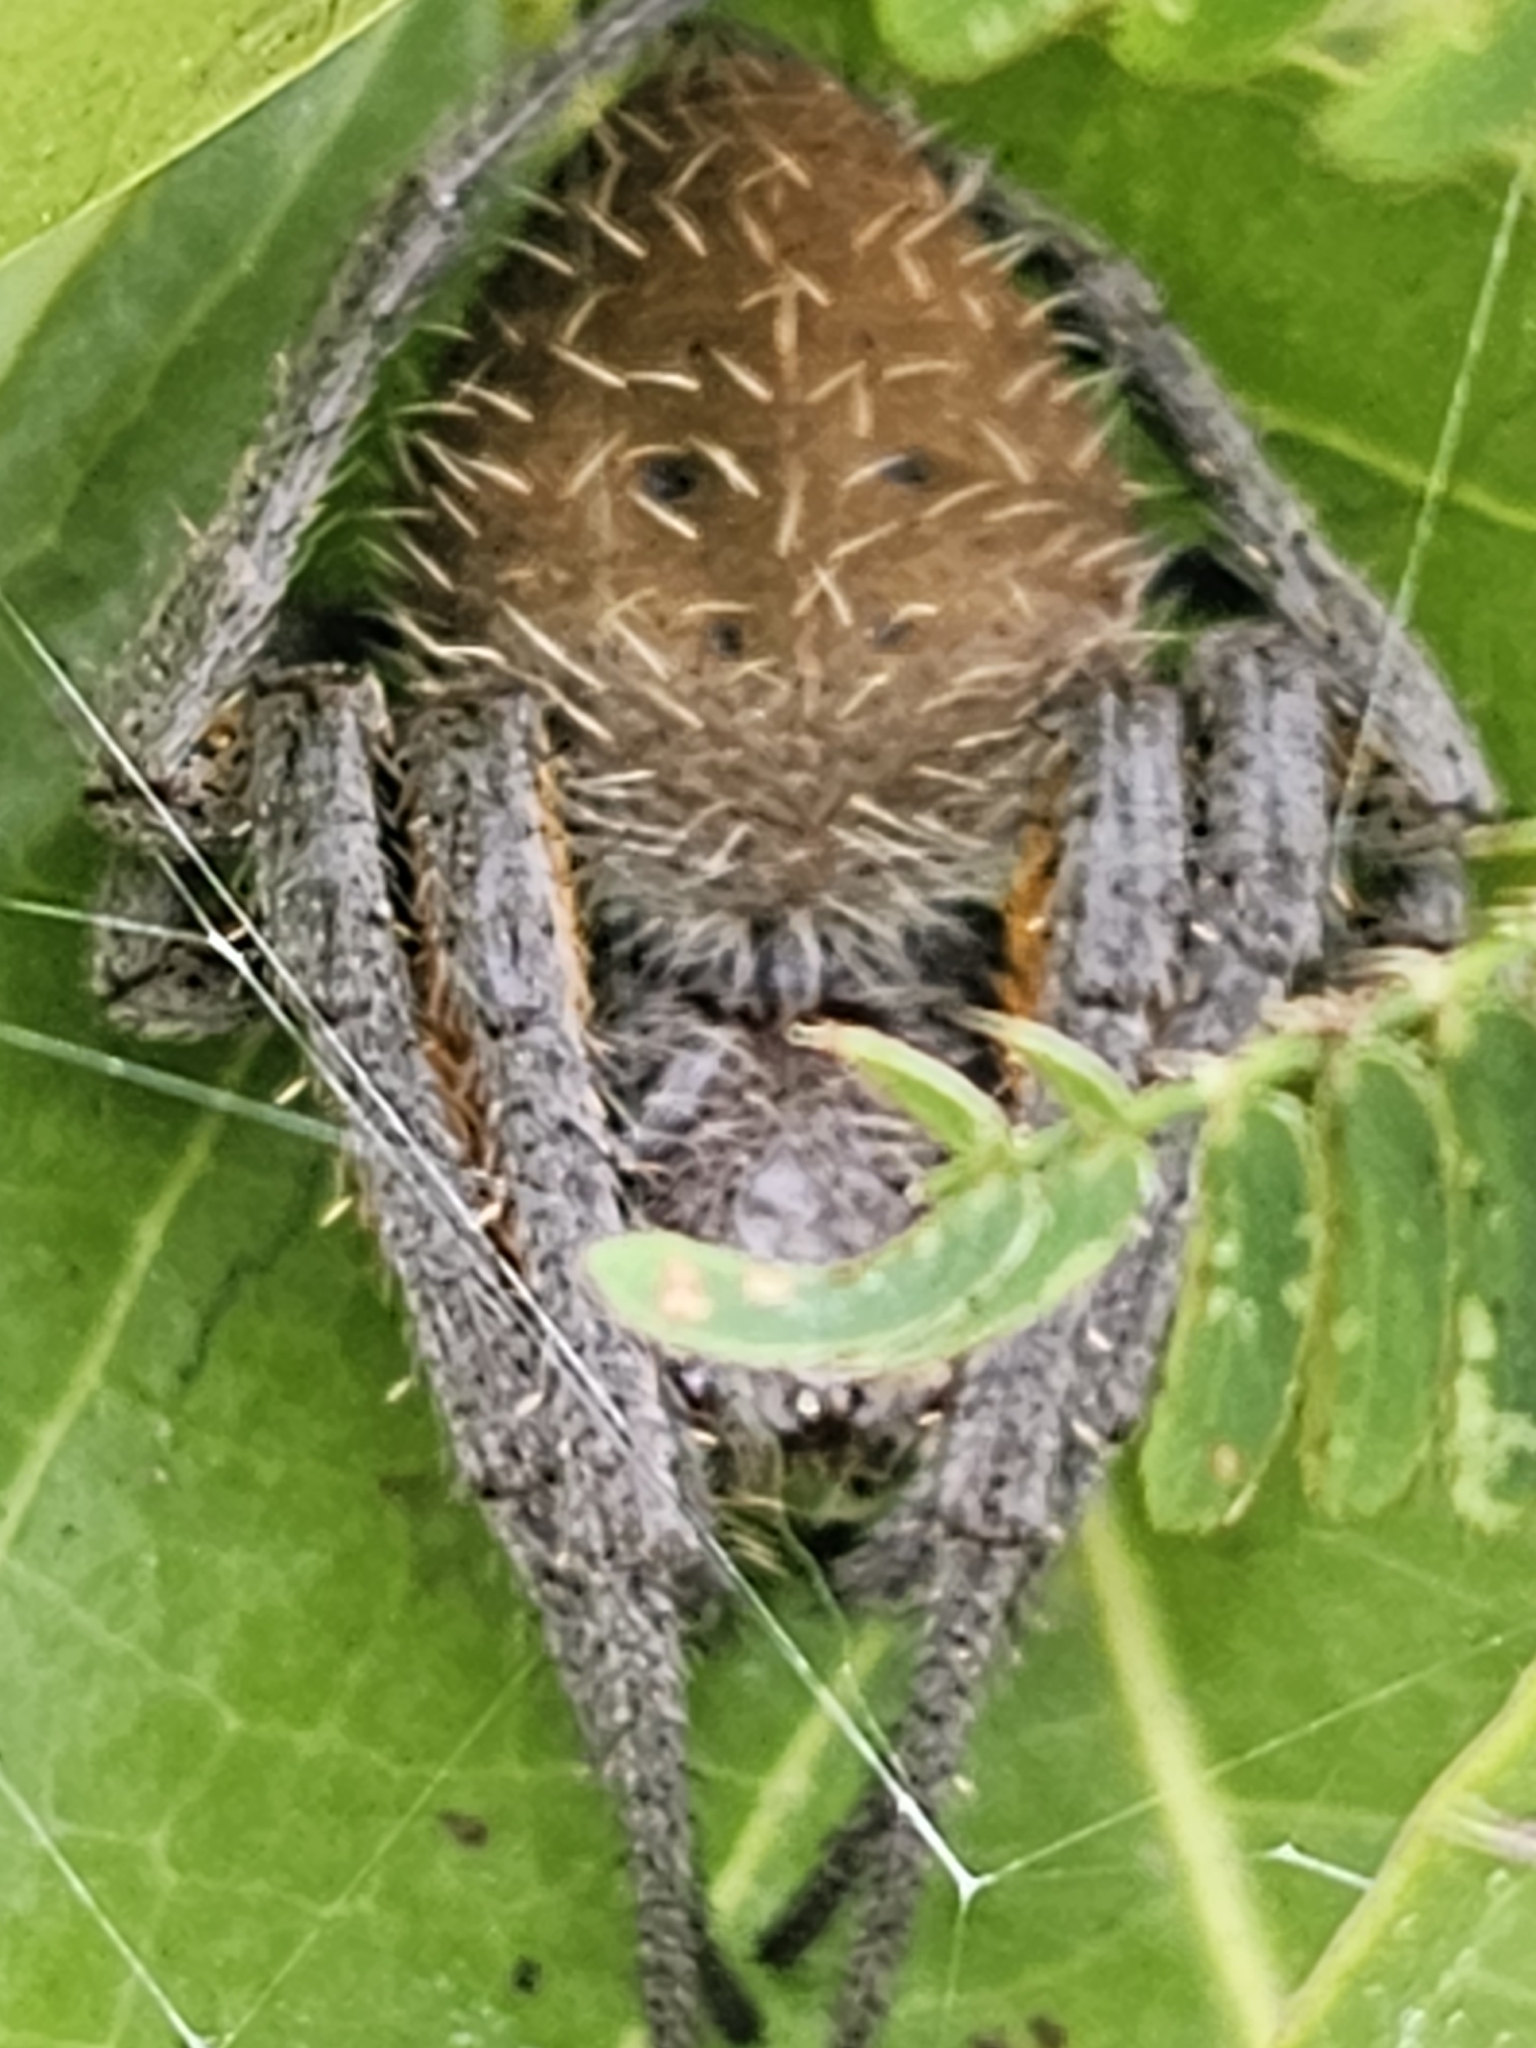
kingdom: Animalia
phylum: Arthropoda
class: Arachnida
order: Araneae
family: Araneidae
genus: Eriophora
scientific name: Eriophora fuliginea
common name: Orb weavers
